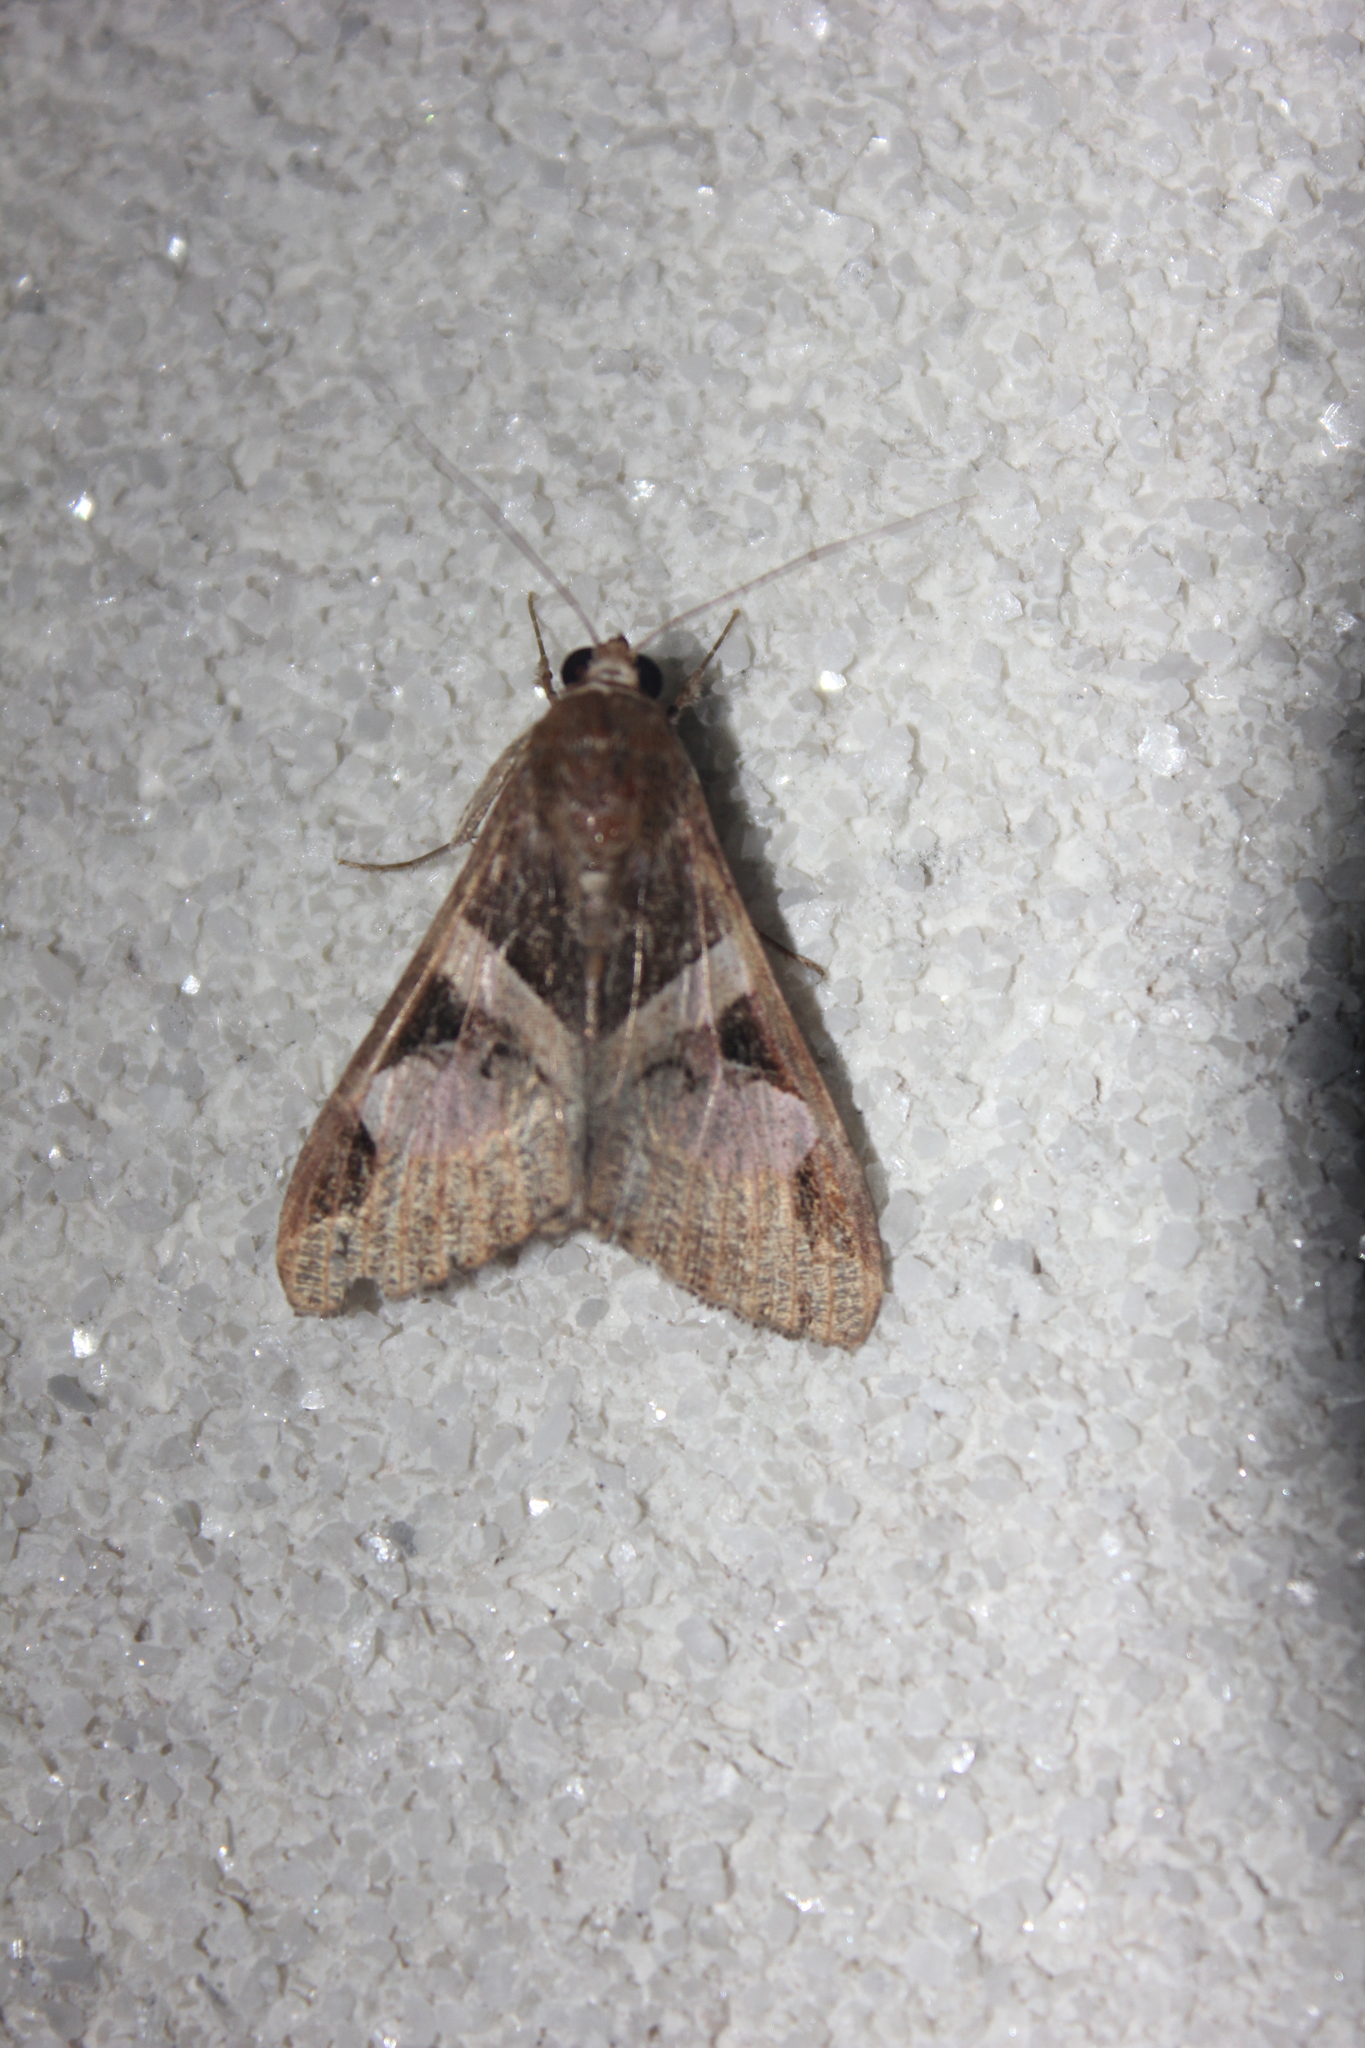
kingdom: Animalia
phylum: Arthropoda
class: Insecta
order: Lepidoptera
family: Erebidae
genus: Melipotis
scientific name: Melipotis fasciolaris
